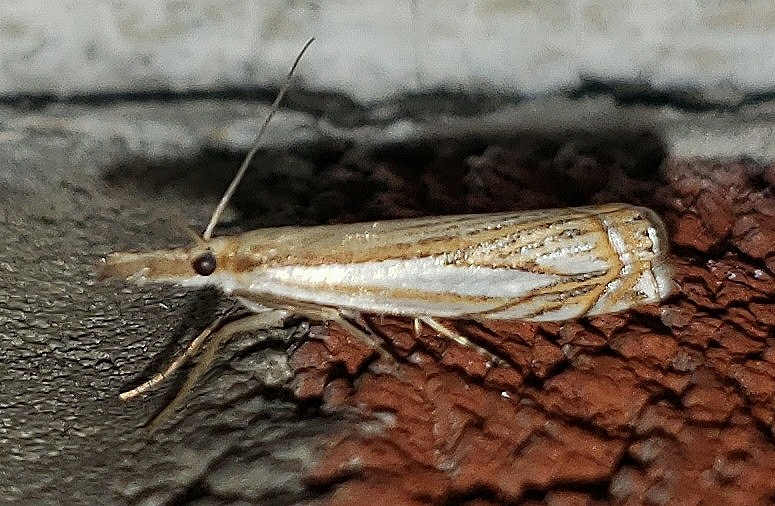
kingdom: Animalia
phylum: Arthropoda
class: Insecta
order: Lepidoptera
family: Crambidae
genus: Crambus
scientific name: Crambus saltuellus
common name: Pasture grass-veneer
